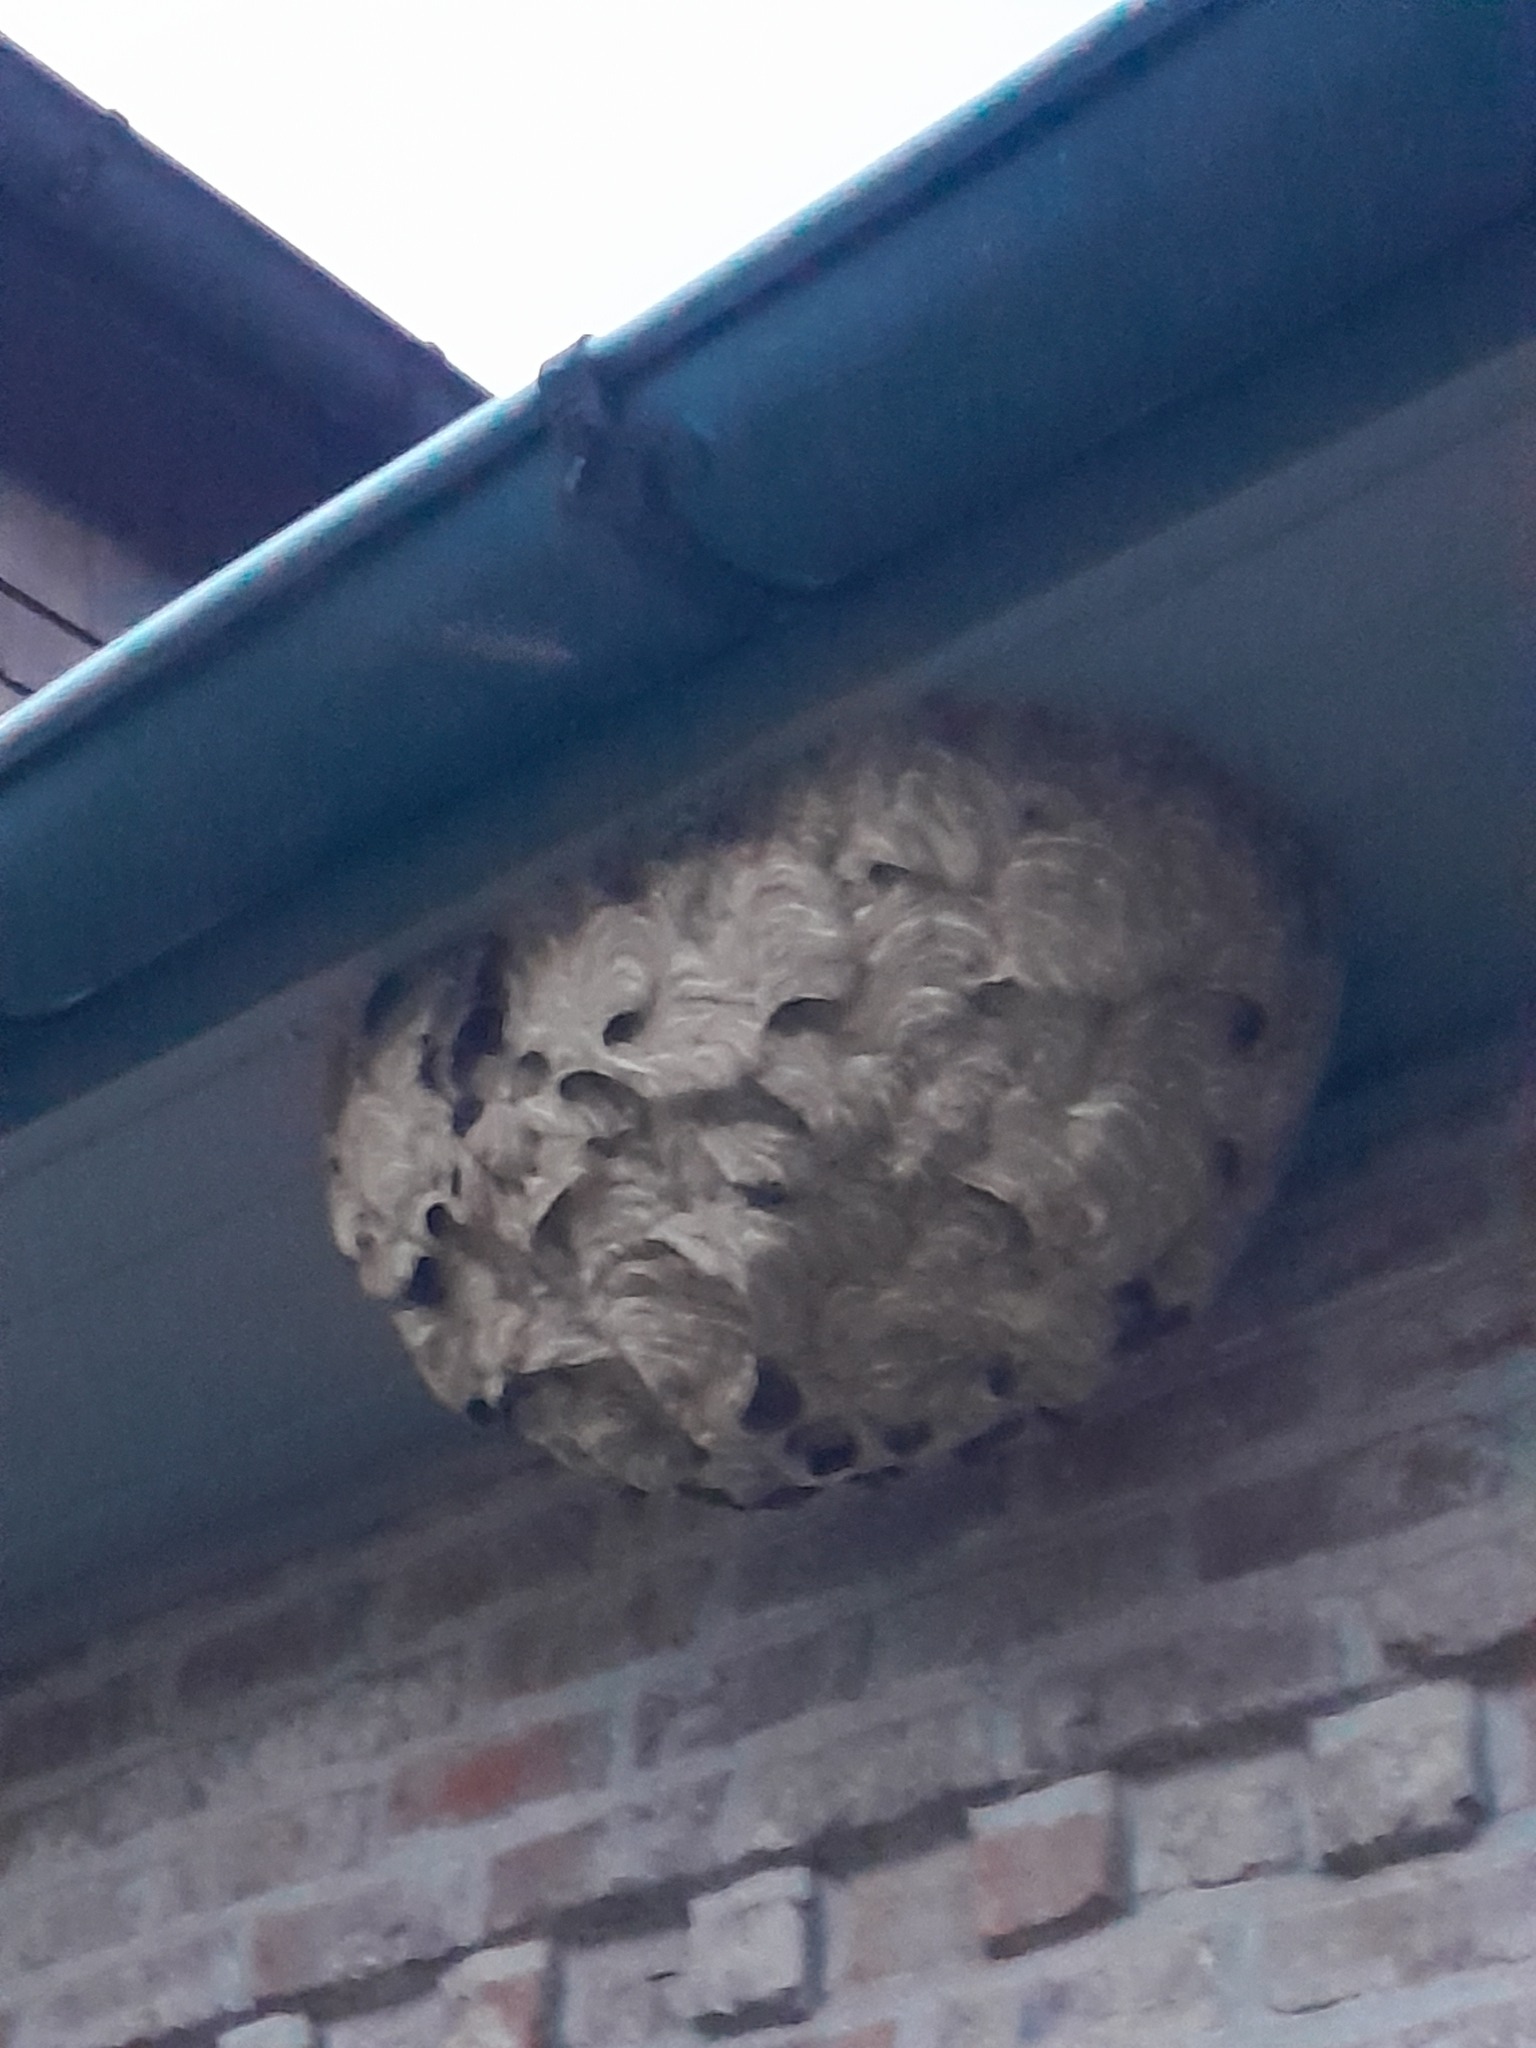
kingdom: Animalia
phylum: Arthropoda
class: Insecta
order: Hymenoptera
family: Vespidae
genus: Vespa
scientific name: Vespa velutina
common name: Asian hornet
